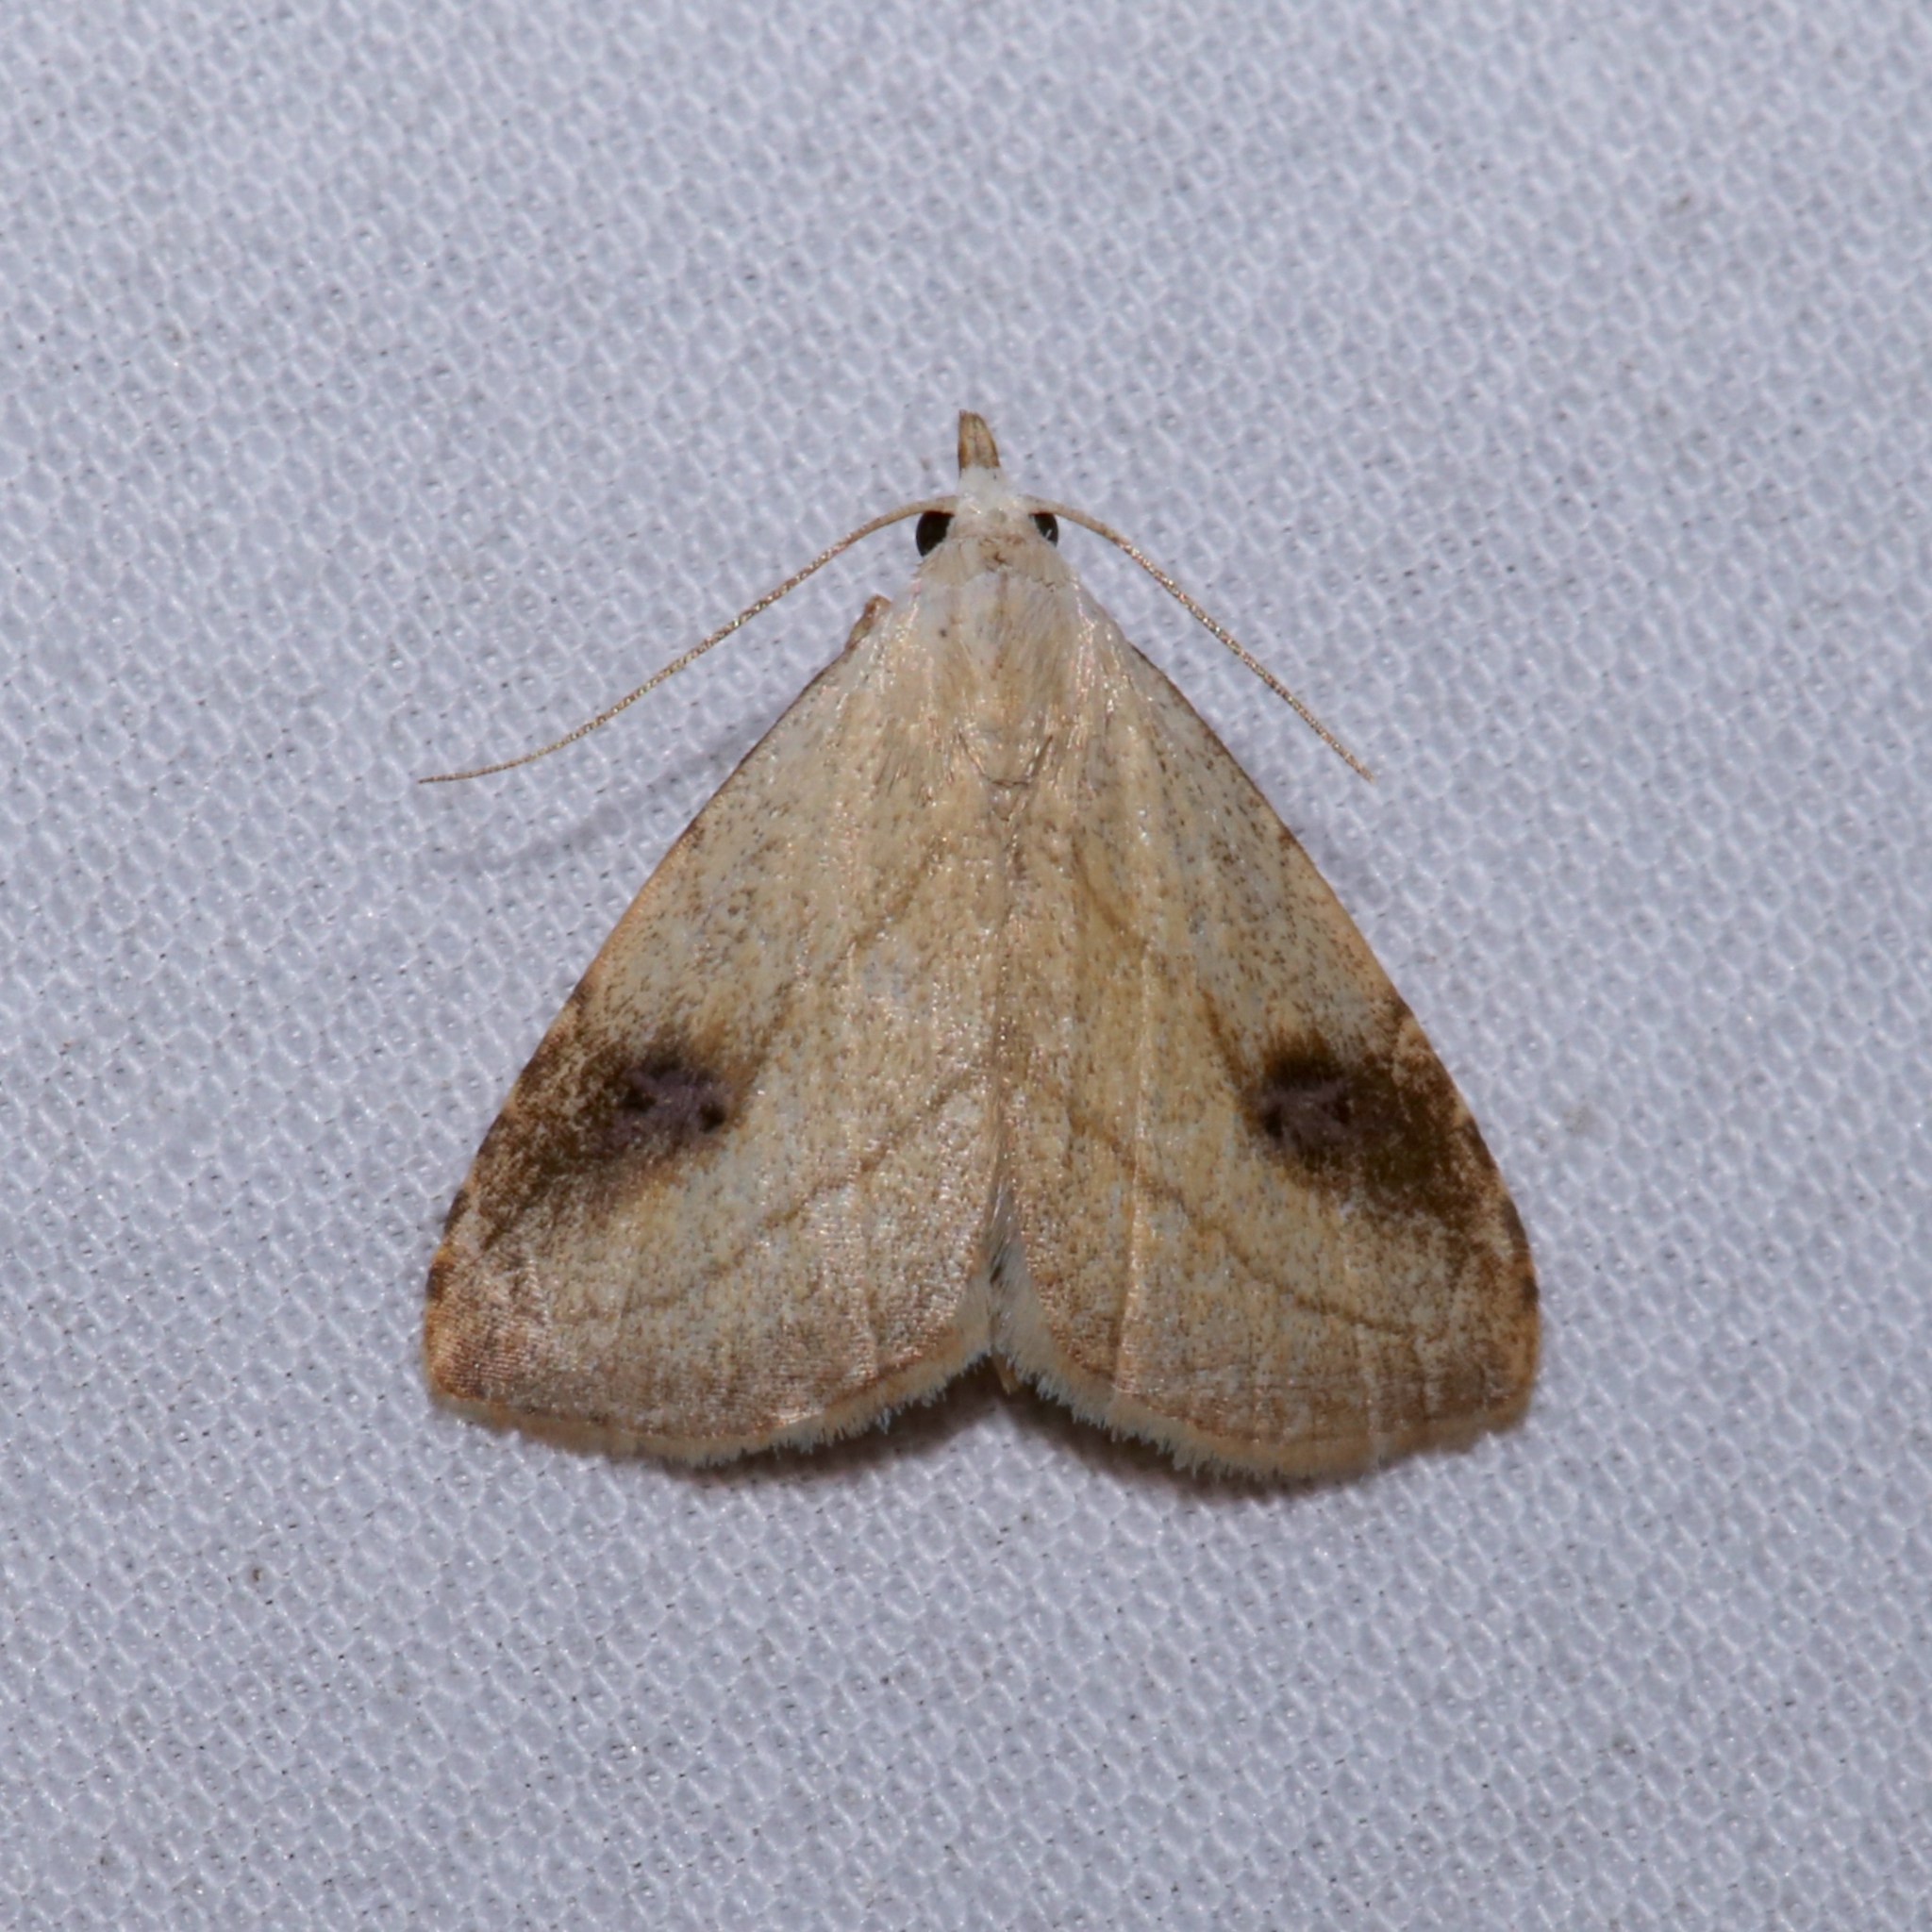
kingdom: Animalia
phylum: Arthropoda
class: Insecta
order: Lepidoptera
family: Erebidae
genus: Rivula
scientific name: Rivula propinqualis
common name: Spotted grass moth
